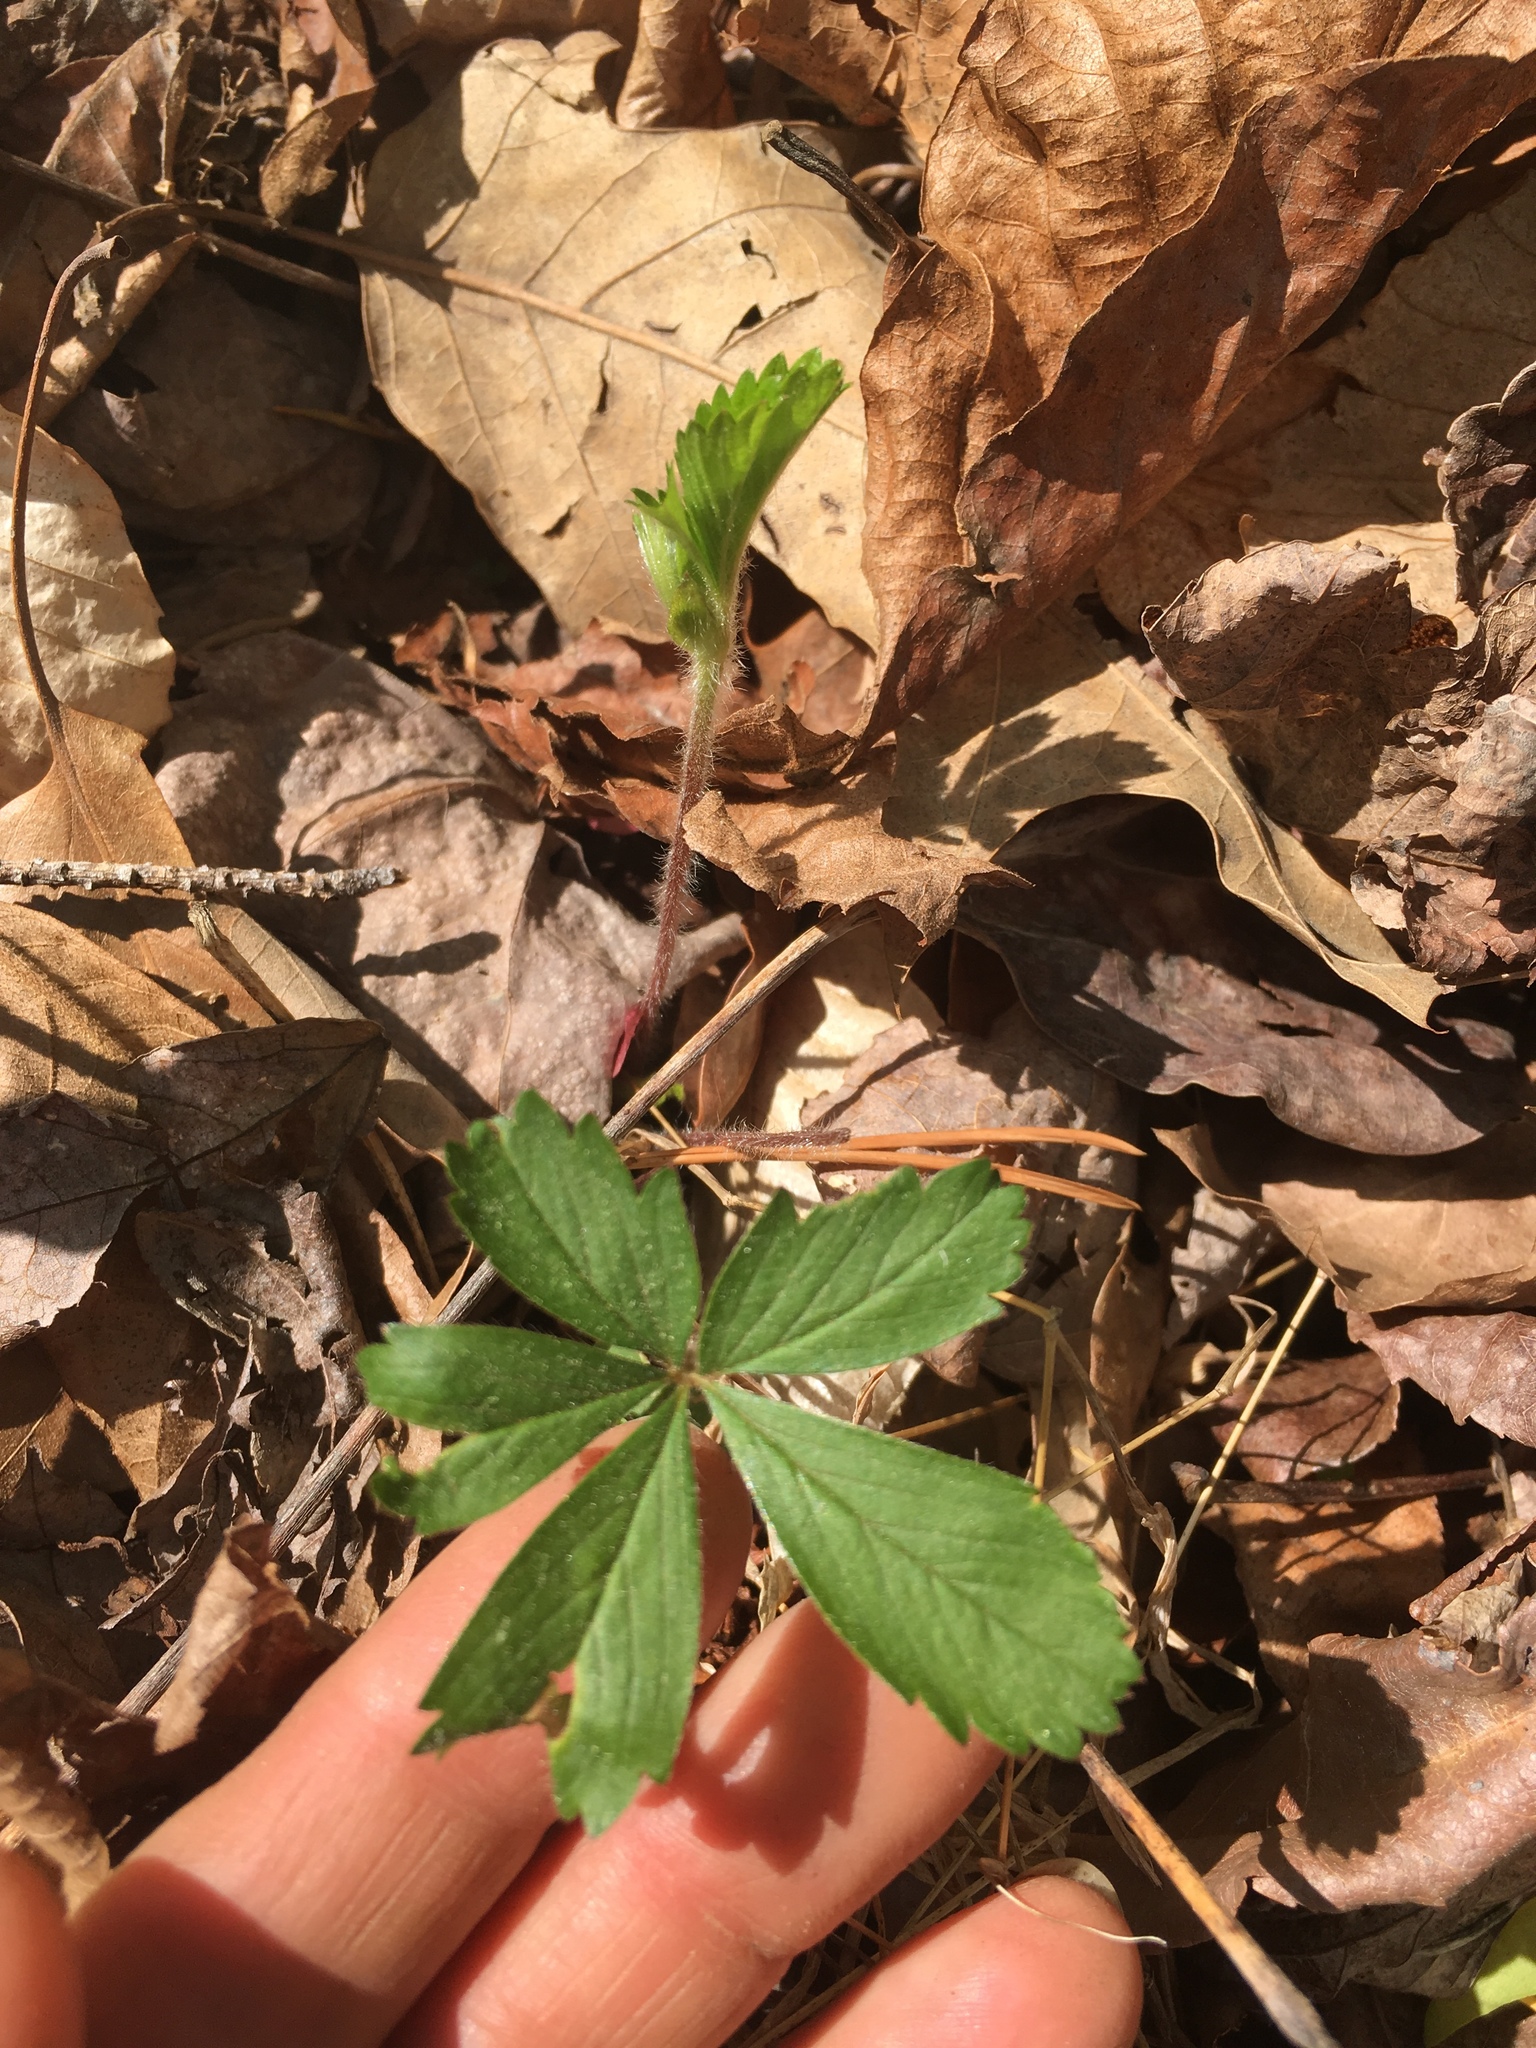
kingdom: Plantae
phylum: Tracheophyta
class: Magnoliopsida
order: Rosales
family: Rosaceae
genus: Potentilla
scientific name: Potentilla simplex
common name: Old field cinquefoil
